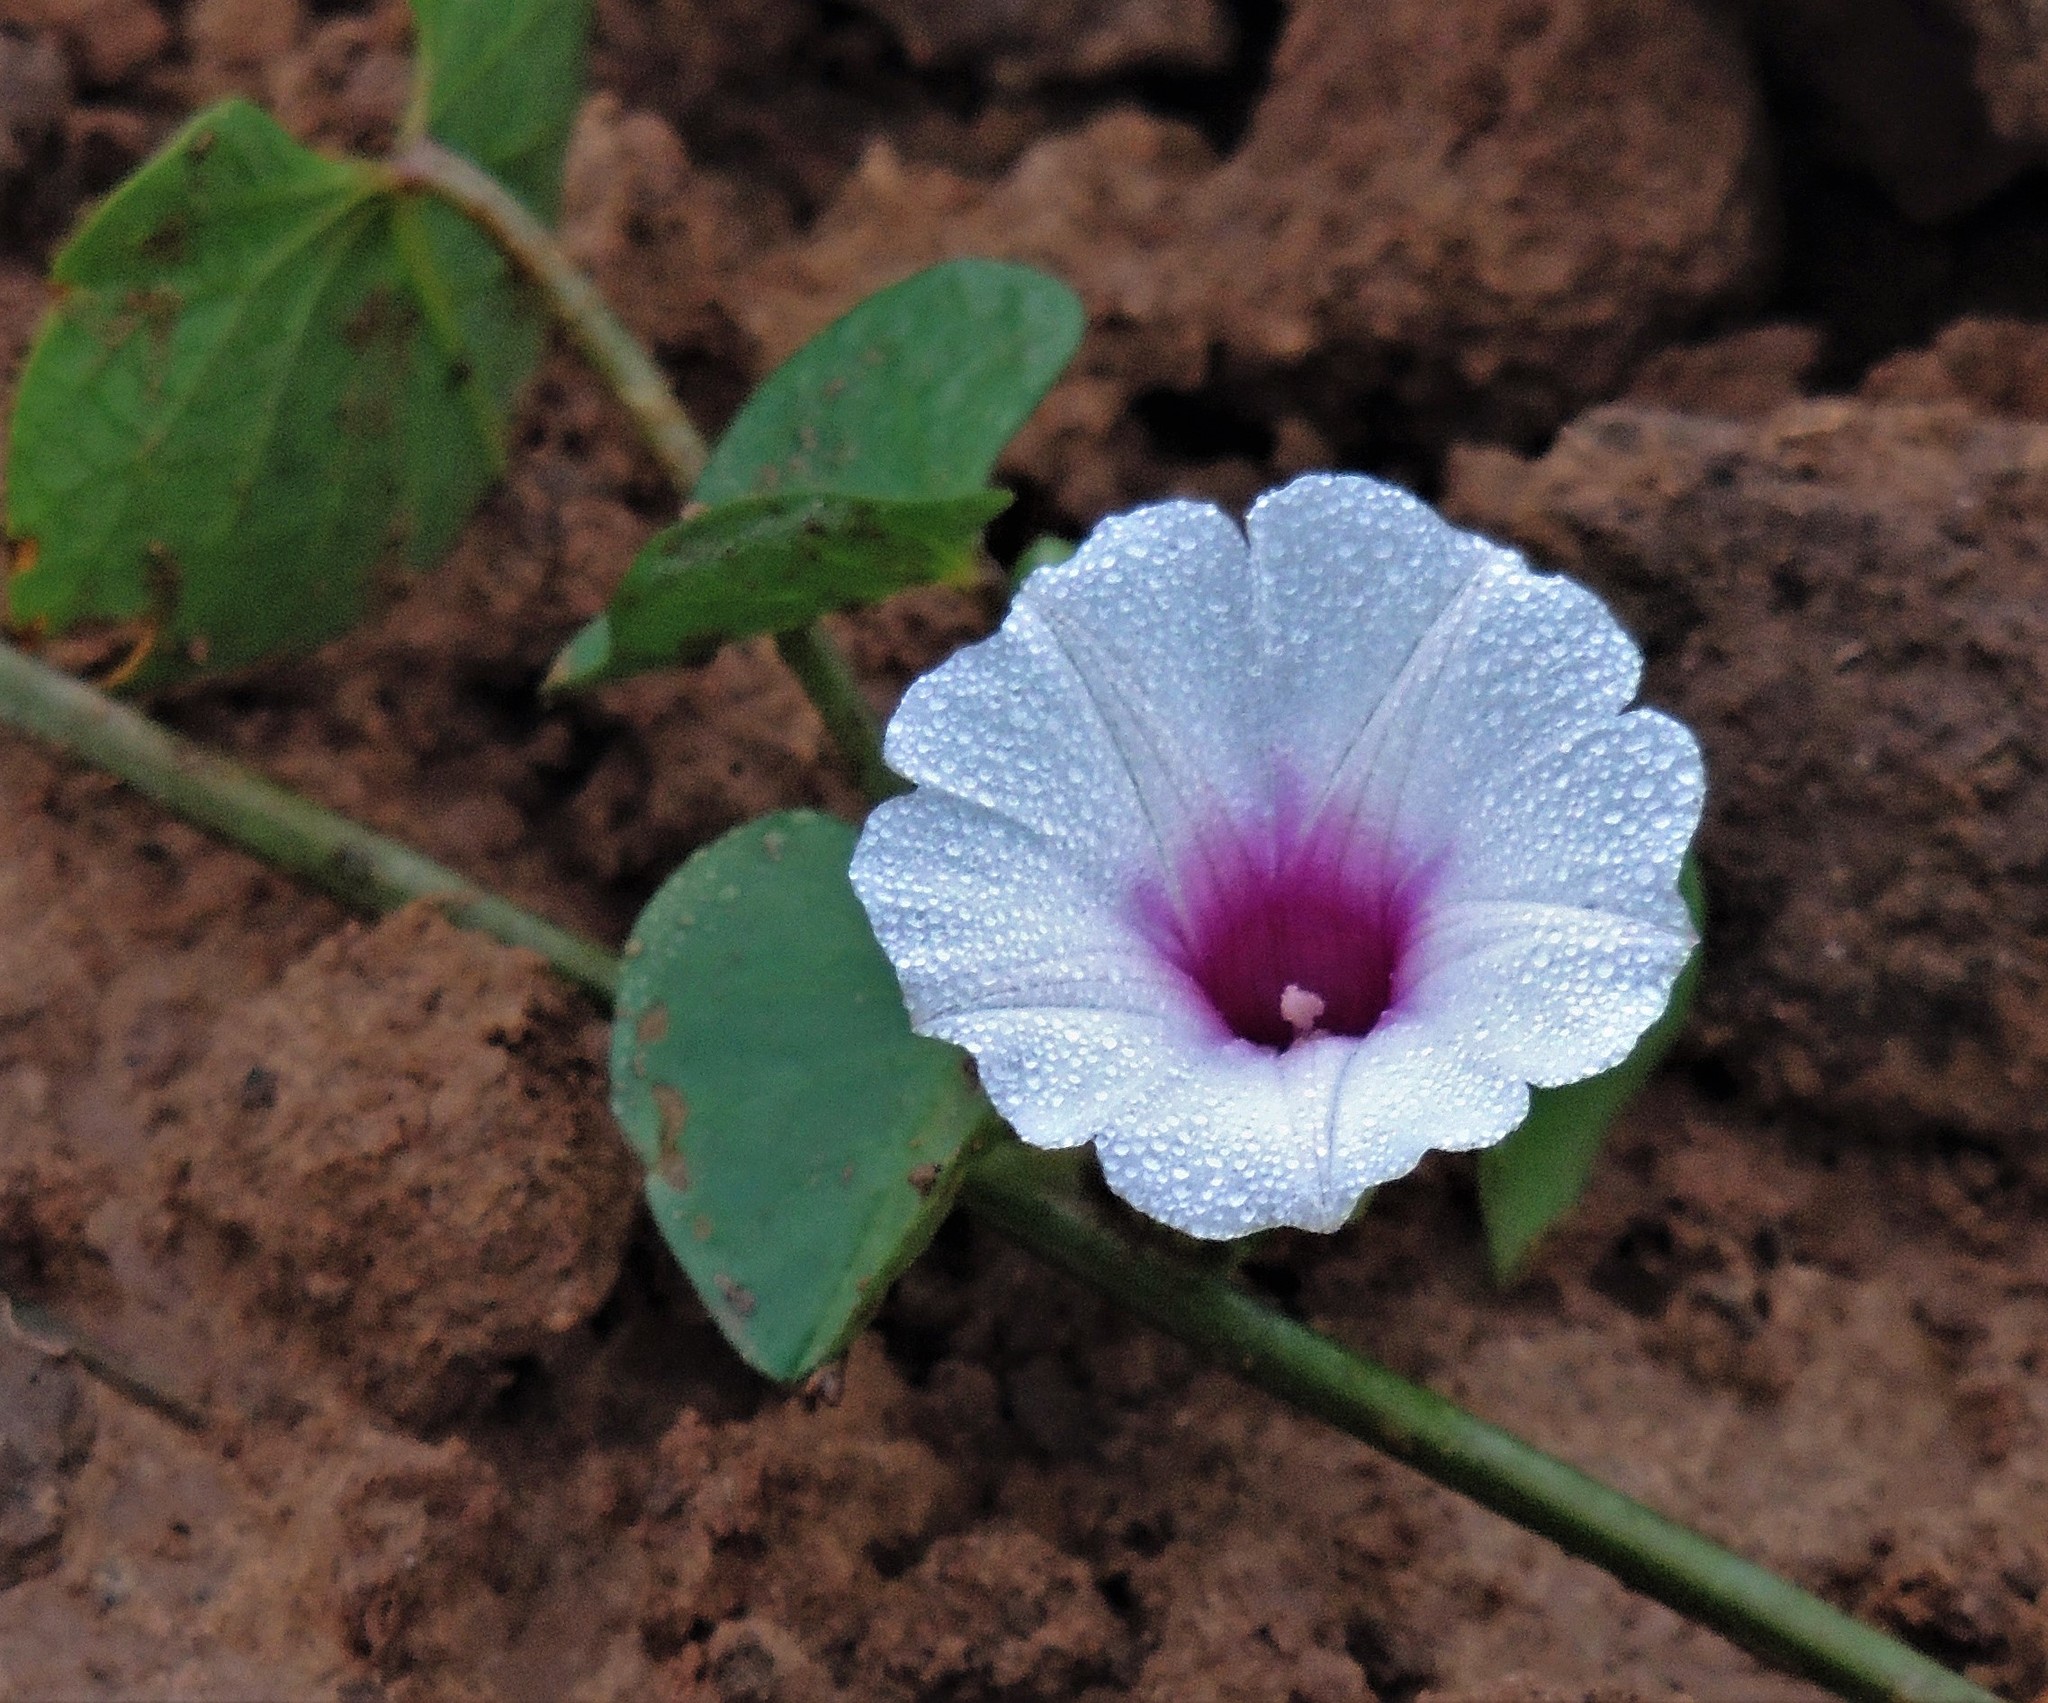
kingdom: Plantae
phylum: Tracheophyta
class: Magnoliopsida
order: Solanales
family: Convolvulaceae
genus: Ipomoea
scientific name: Ipomoea vivianae
